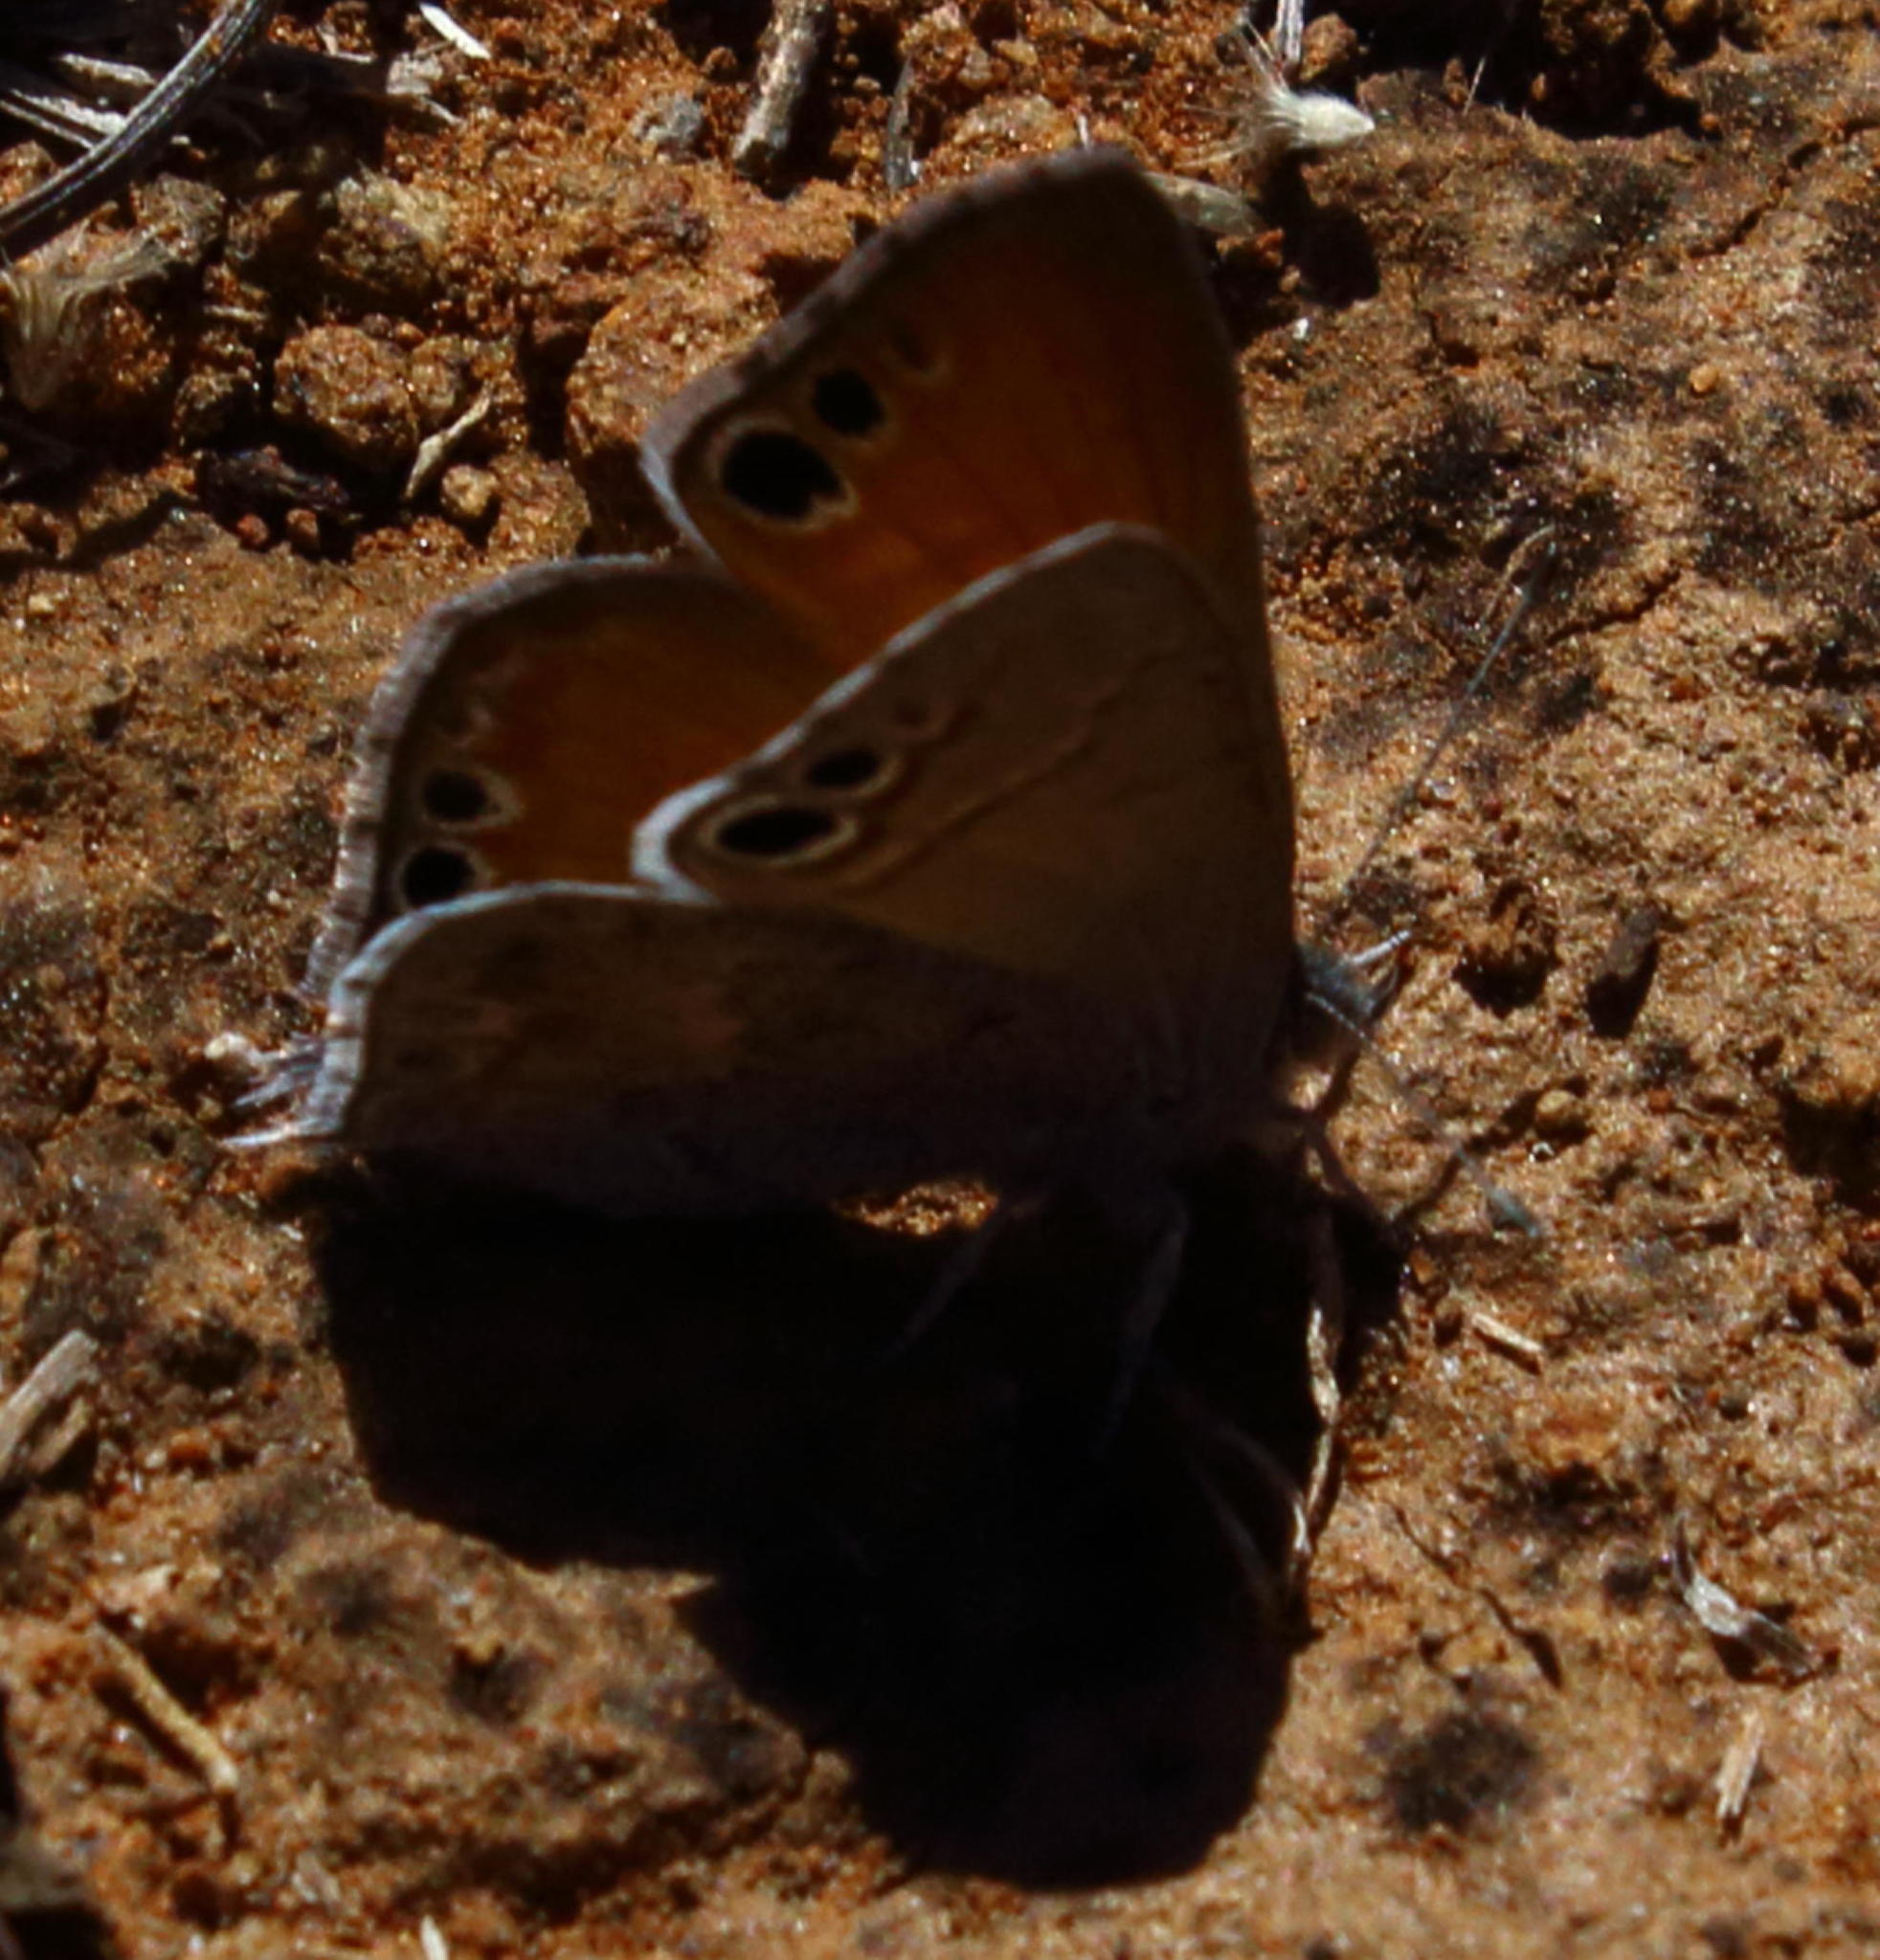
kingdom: Animalia
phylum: Arthropoda
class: Insecta
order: Lepidoptera
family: Lycaenidae
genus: Leptomyrina
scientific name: Leptomyrina lara
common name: Cape black-eye
